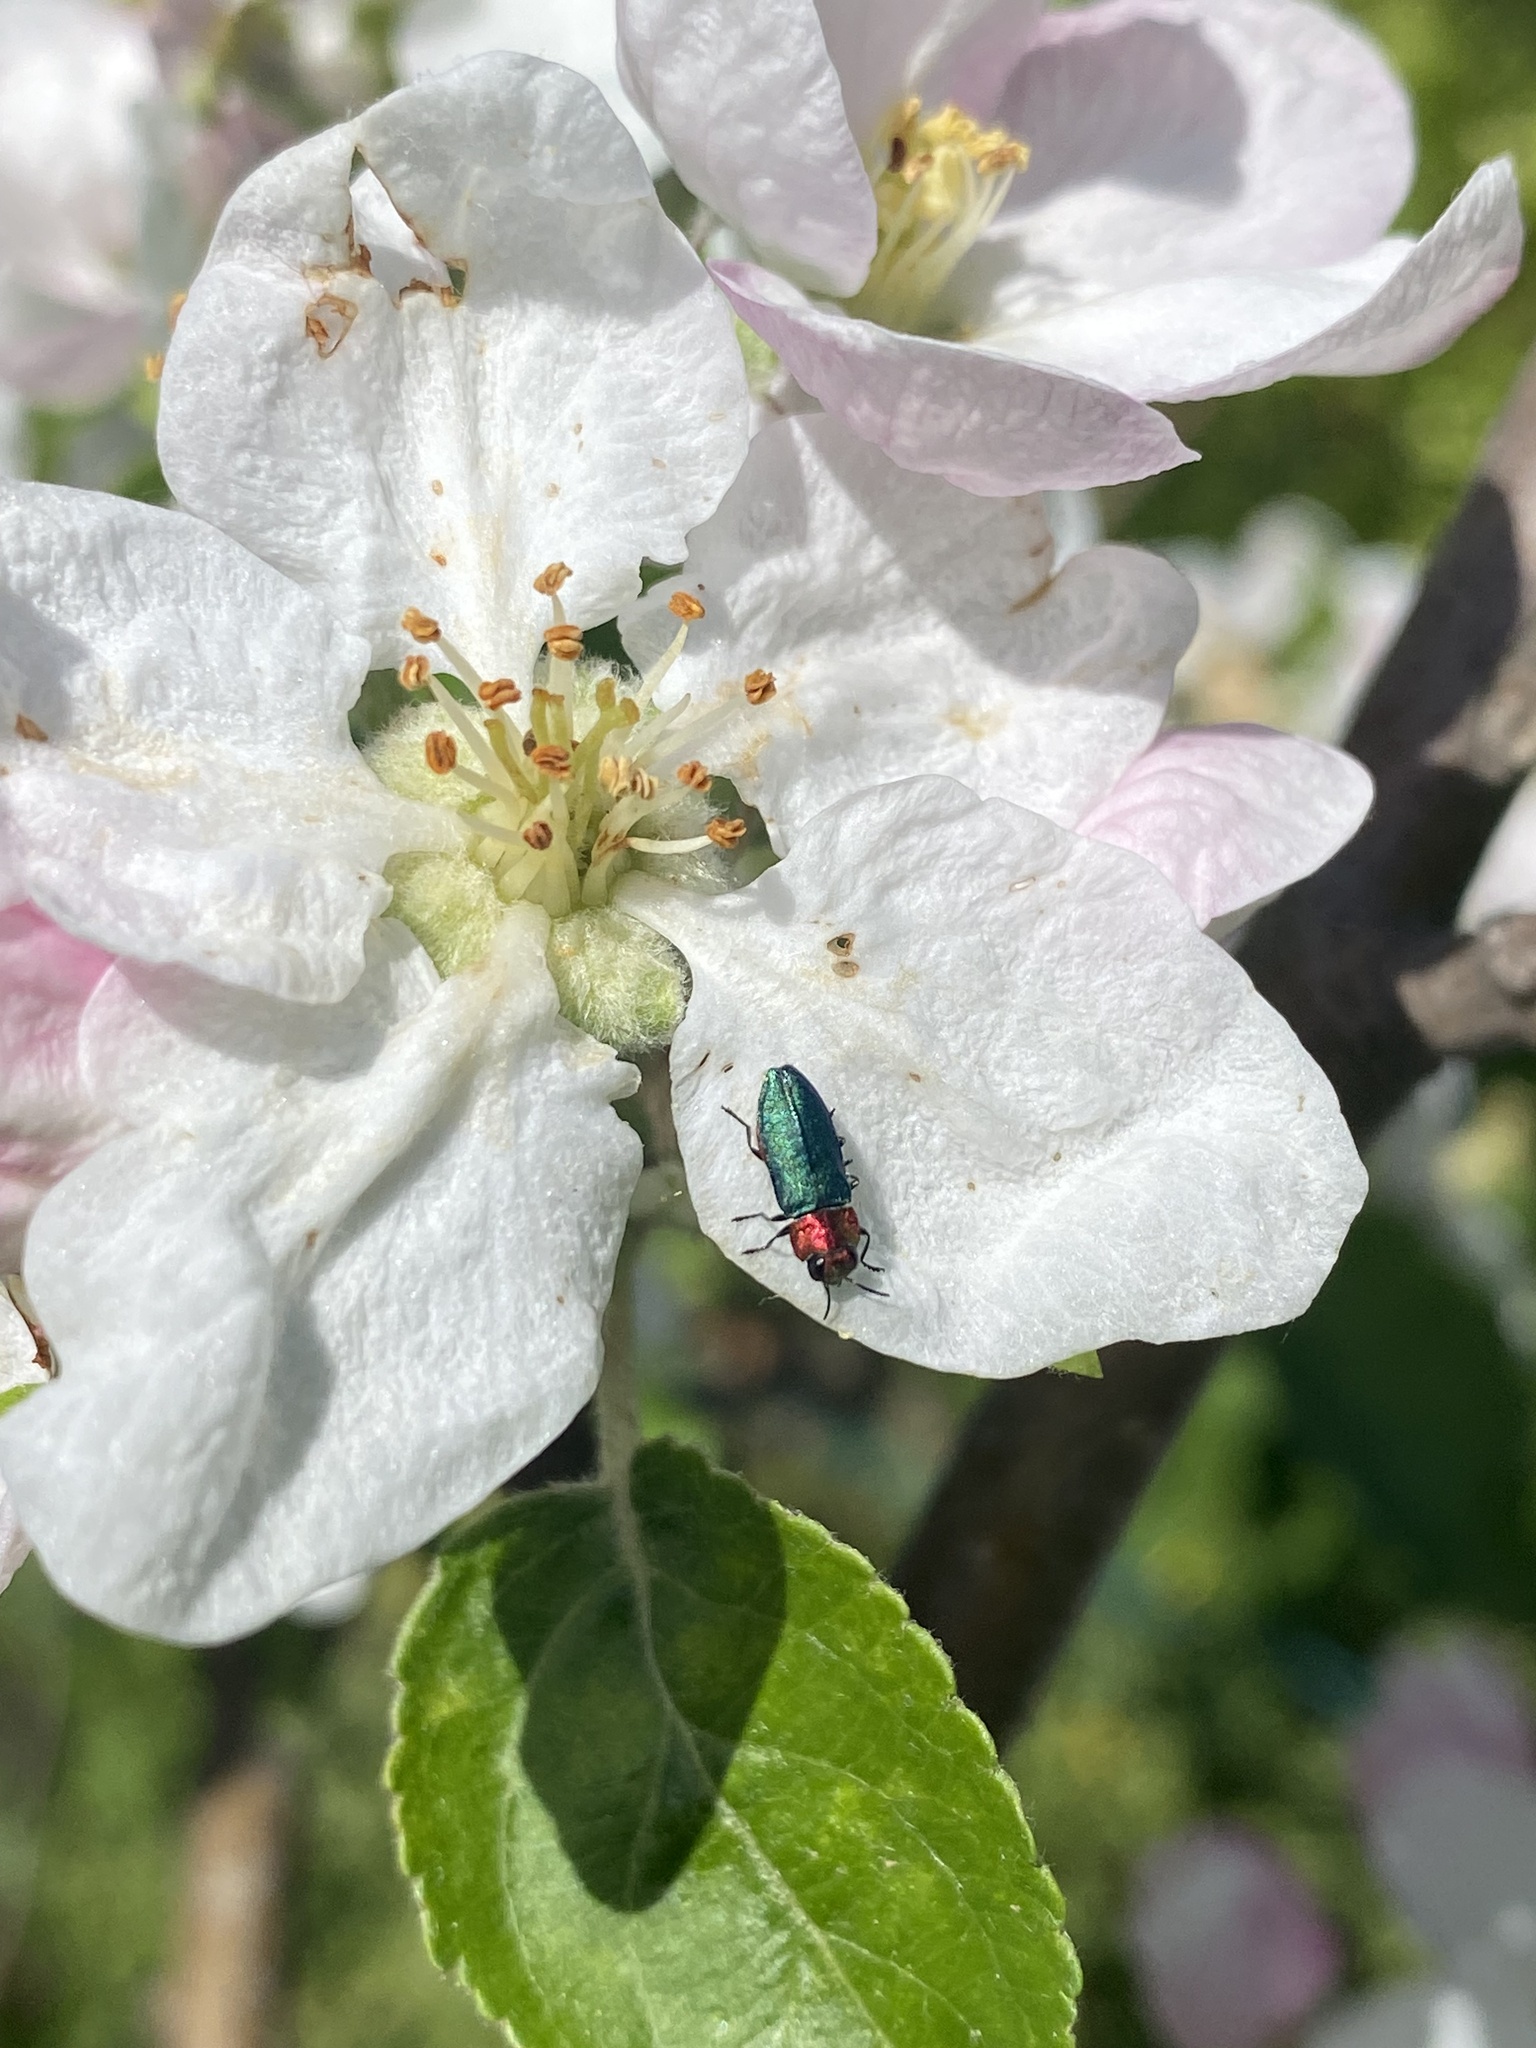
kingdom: Animalia
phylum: Arthropoda
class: Insecta
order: Coleoptera
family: Buprestidae
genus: Anthaxia
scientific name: Anthaxia nitidula
